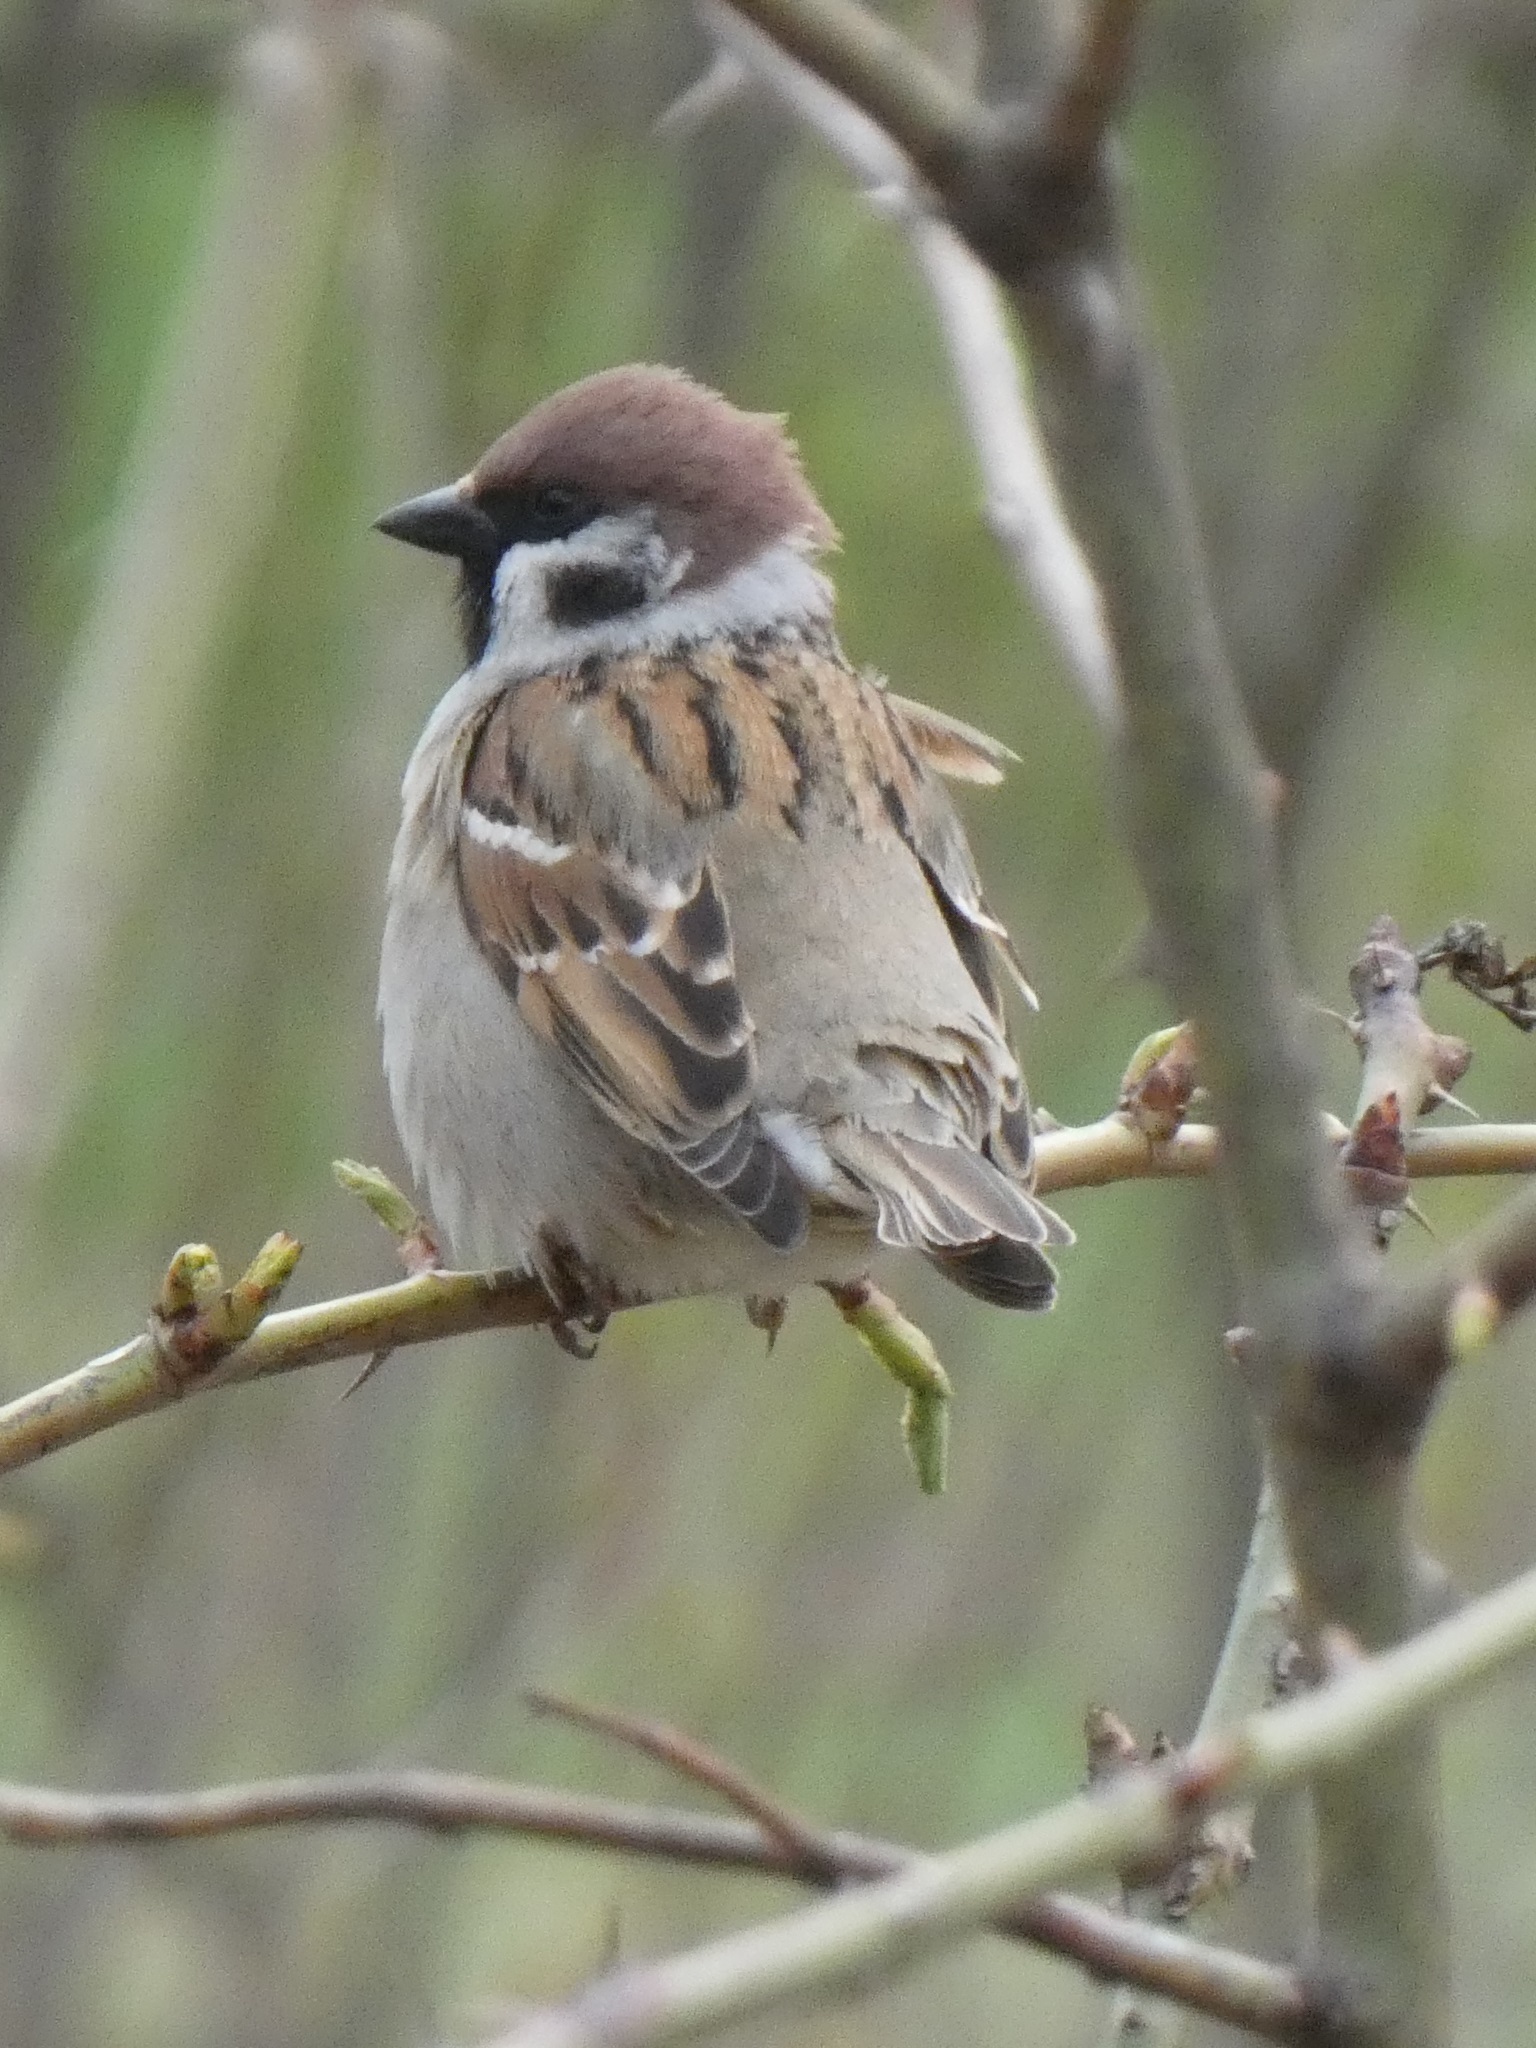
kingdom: Animalia
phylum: Chordata
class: Aves
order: Passeriformes
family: Passeridae
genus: Passer
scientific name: Passer montanus
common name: Eurasian tree sparrow
